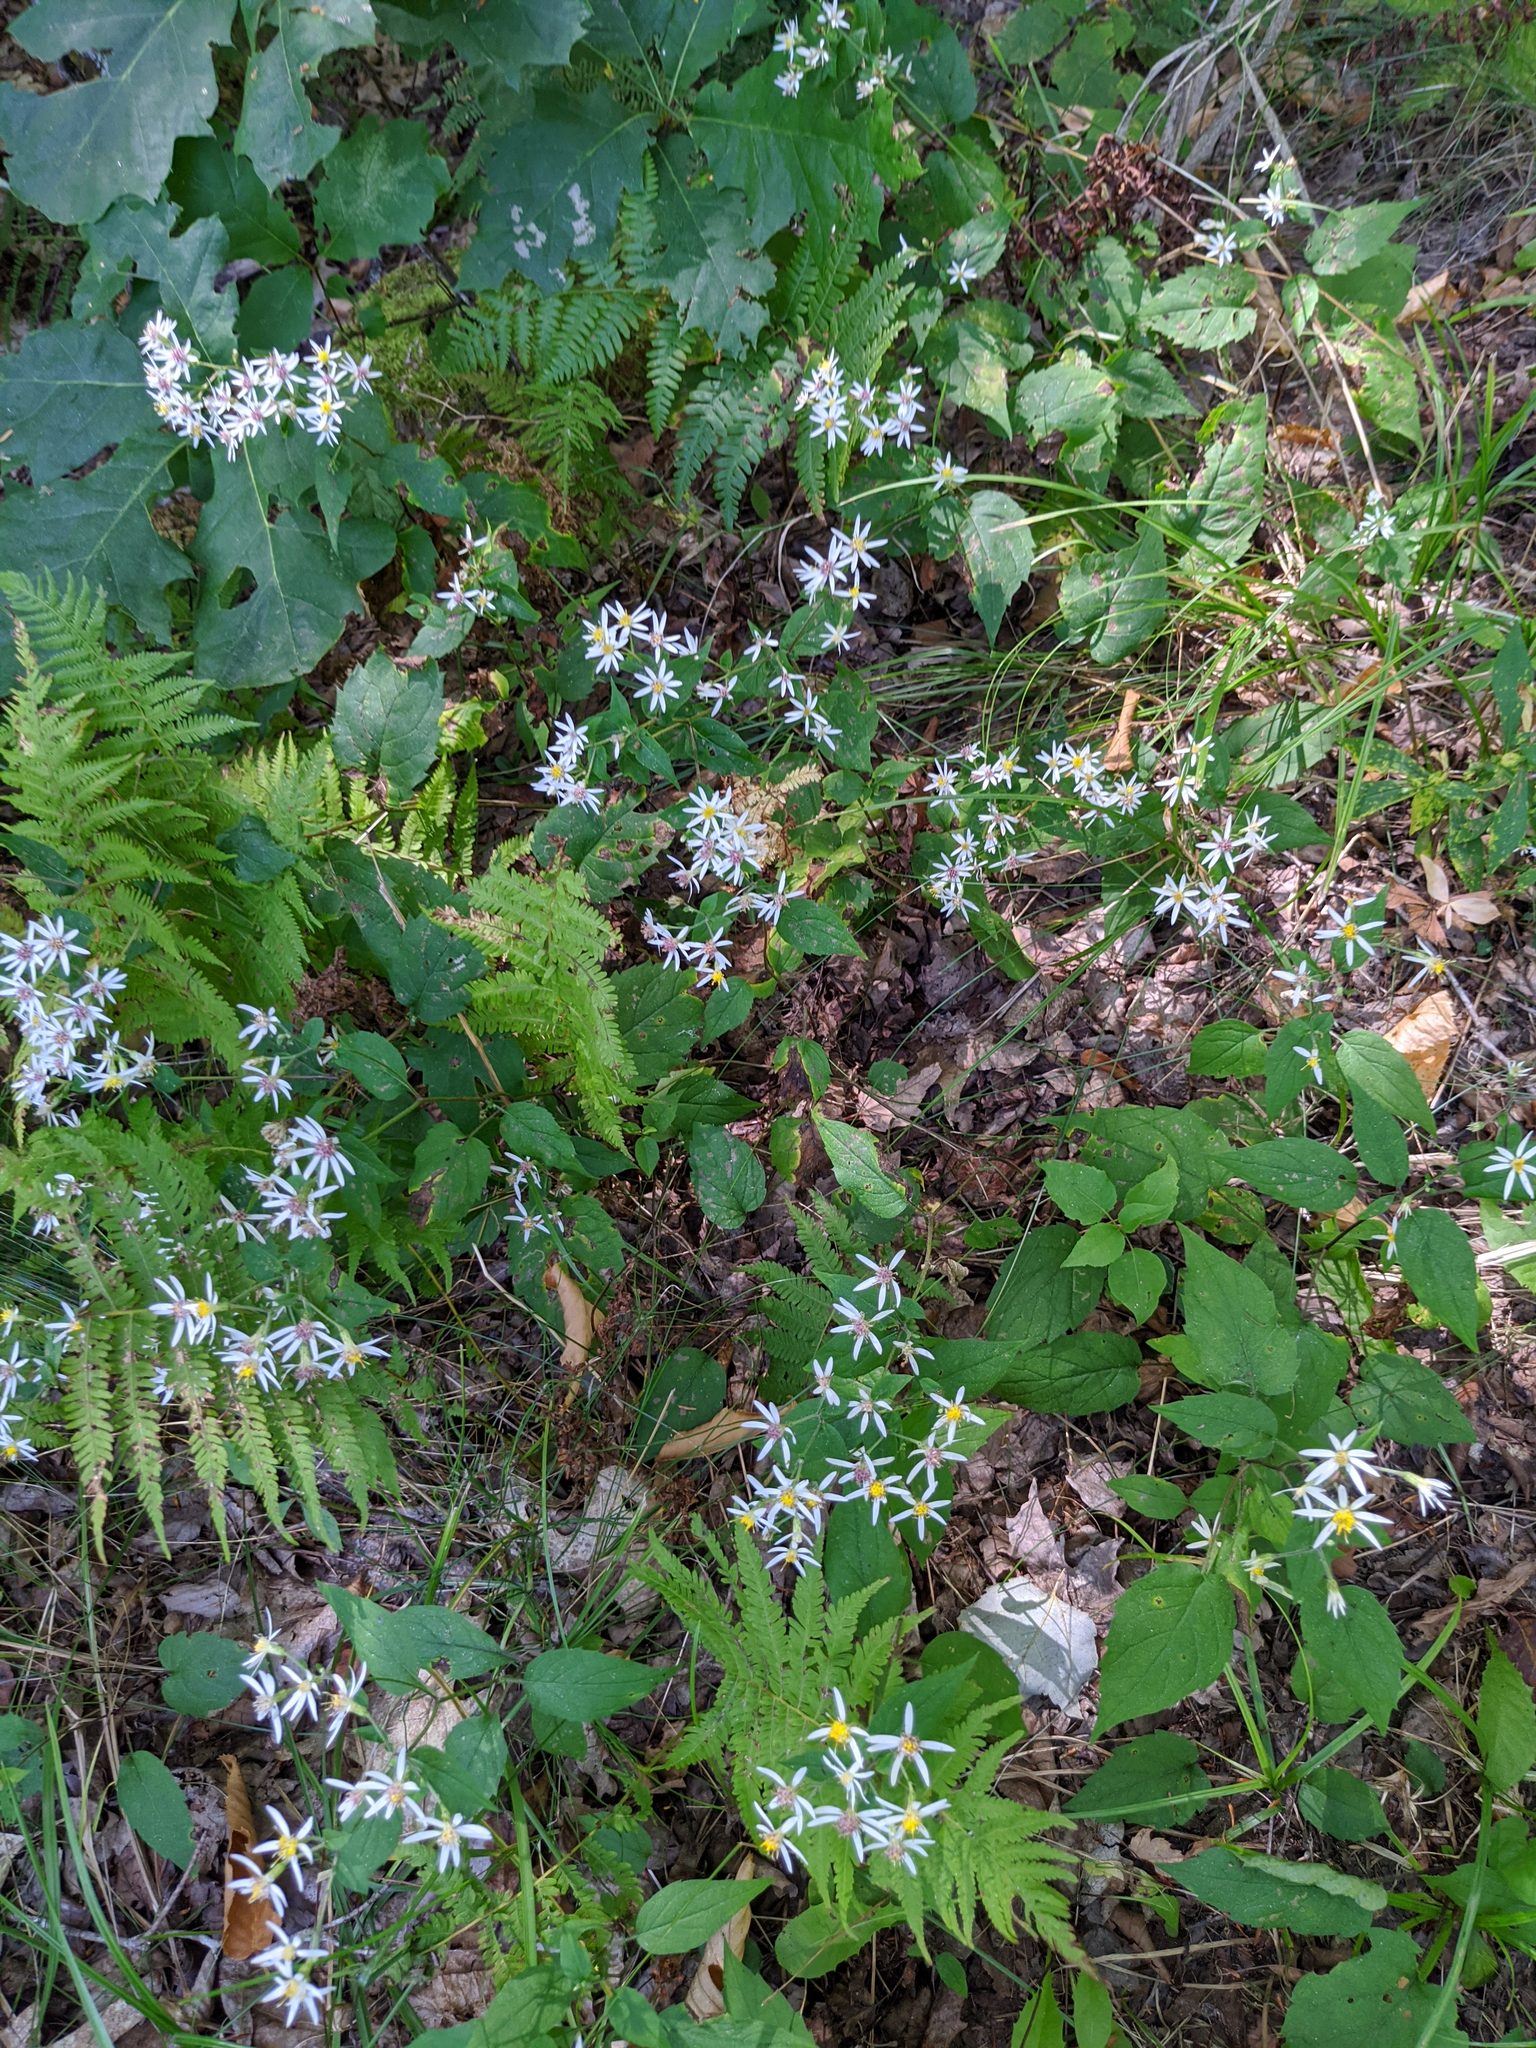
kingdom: Plantae
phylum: Tracheophyta
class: Magnoliopsida
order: Asterales
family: Asteraceae
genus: Eurybia
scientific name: Eurybia divaricata
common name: White wood aster
